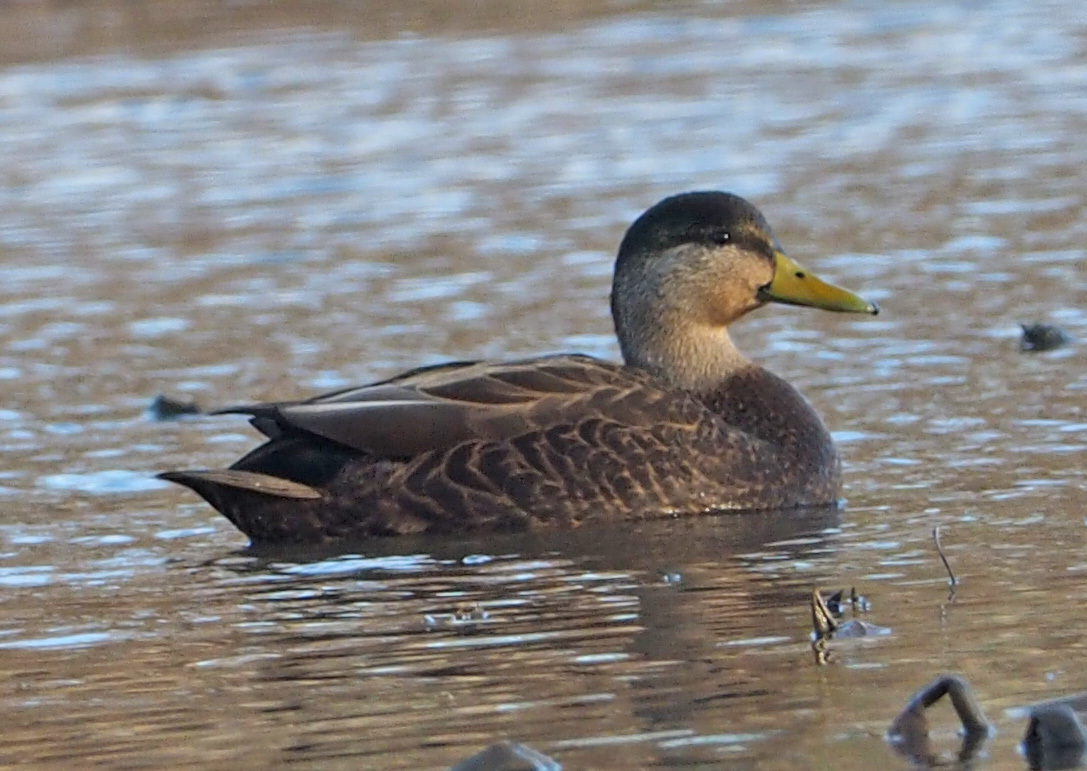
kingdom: Animalia
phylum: Chordata
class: Aves
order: Anseriformes
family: Anatidae
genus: Anas
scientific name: Anas rubripes
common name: American black duck
